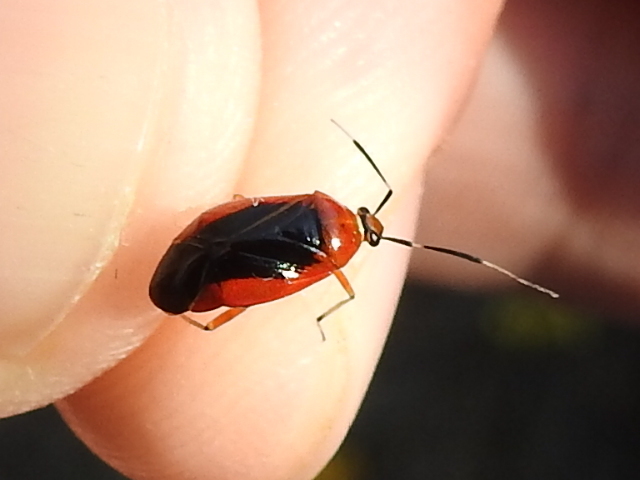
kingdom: Animalia
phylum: Arthropoda
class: Insecta
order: Hemiptera
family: Miridae
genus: Metriorrhynchomiris
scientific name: Metriorrhynchomiris dislocatus
